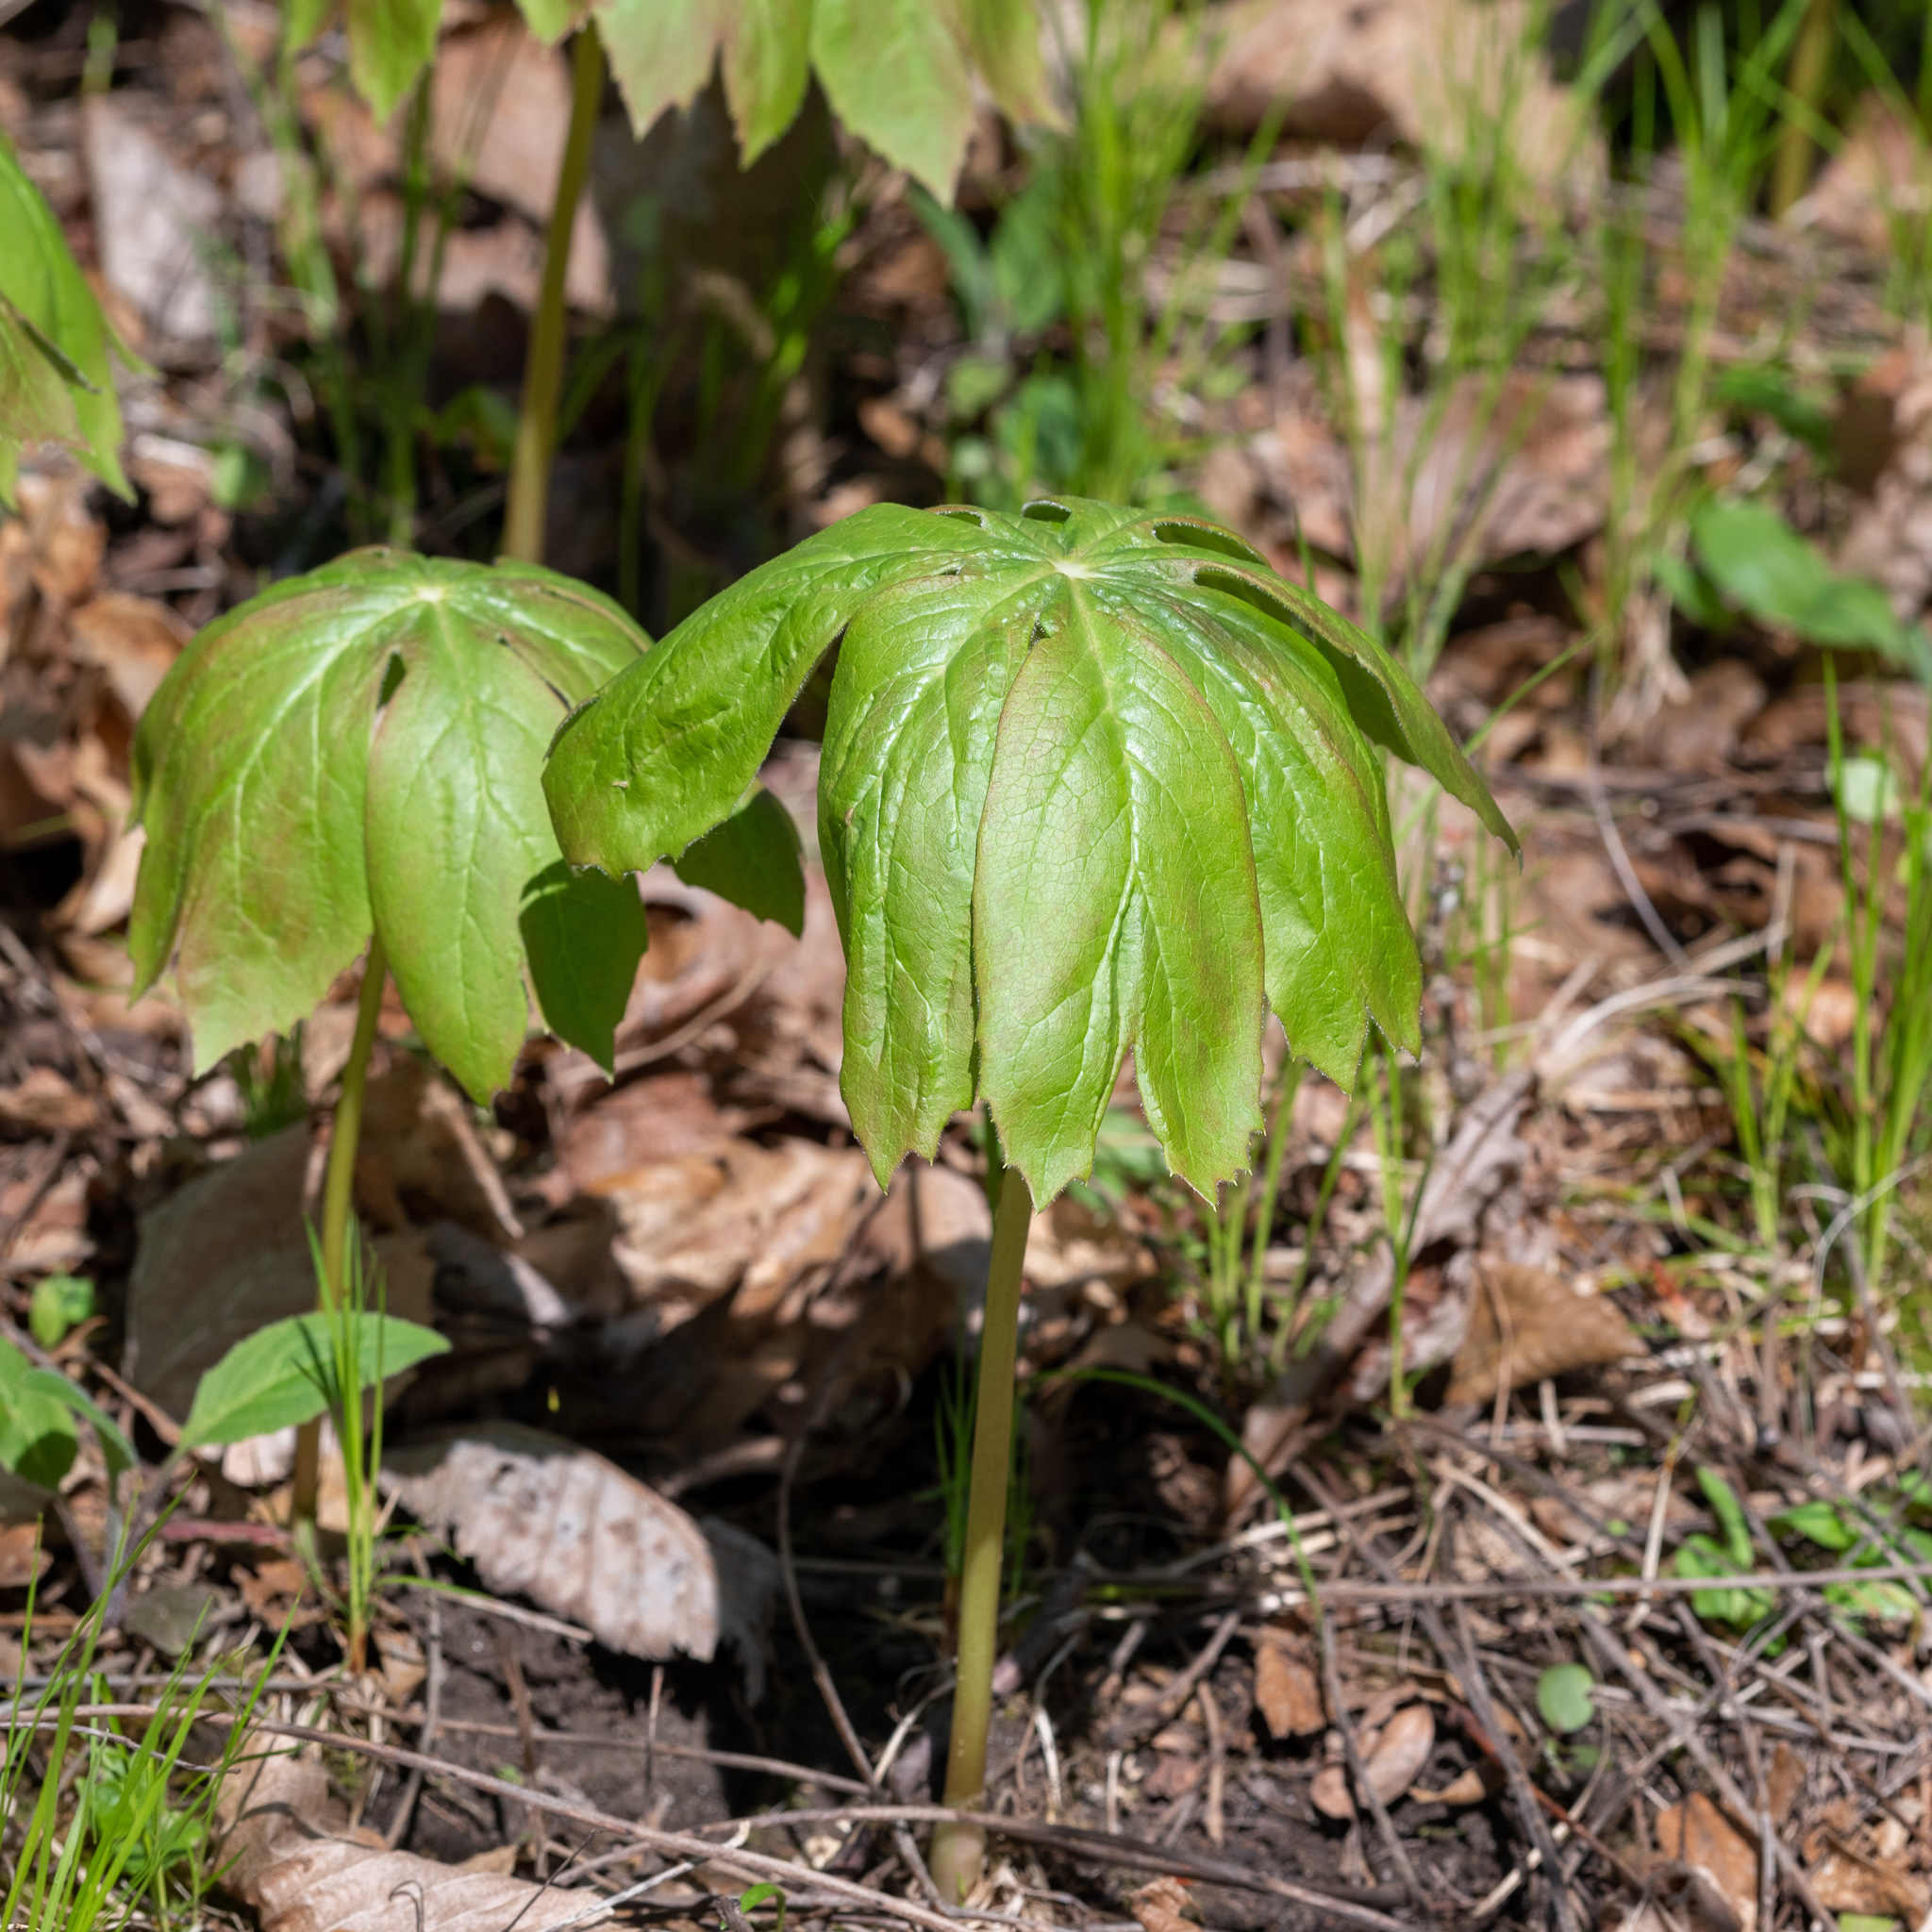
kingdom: Plantae
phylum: Tracheophyta
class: Magnoliopsida
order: Ranunculales
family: Berberidaceae
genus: Podophyllum
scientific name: Podophyllum peltatum
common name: Wild mandrake
